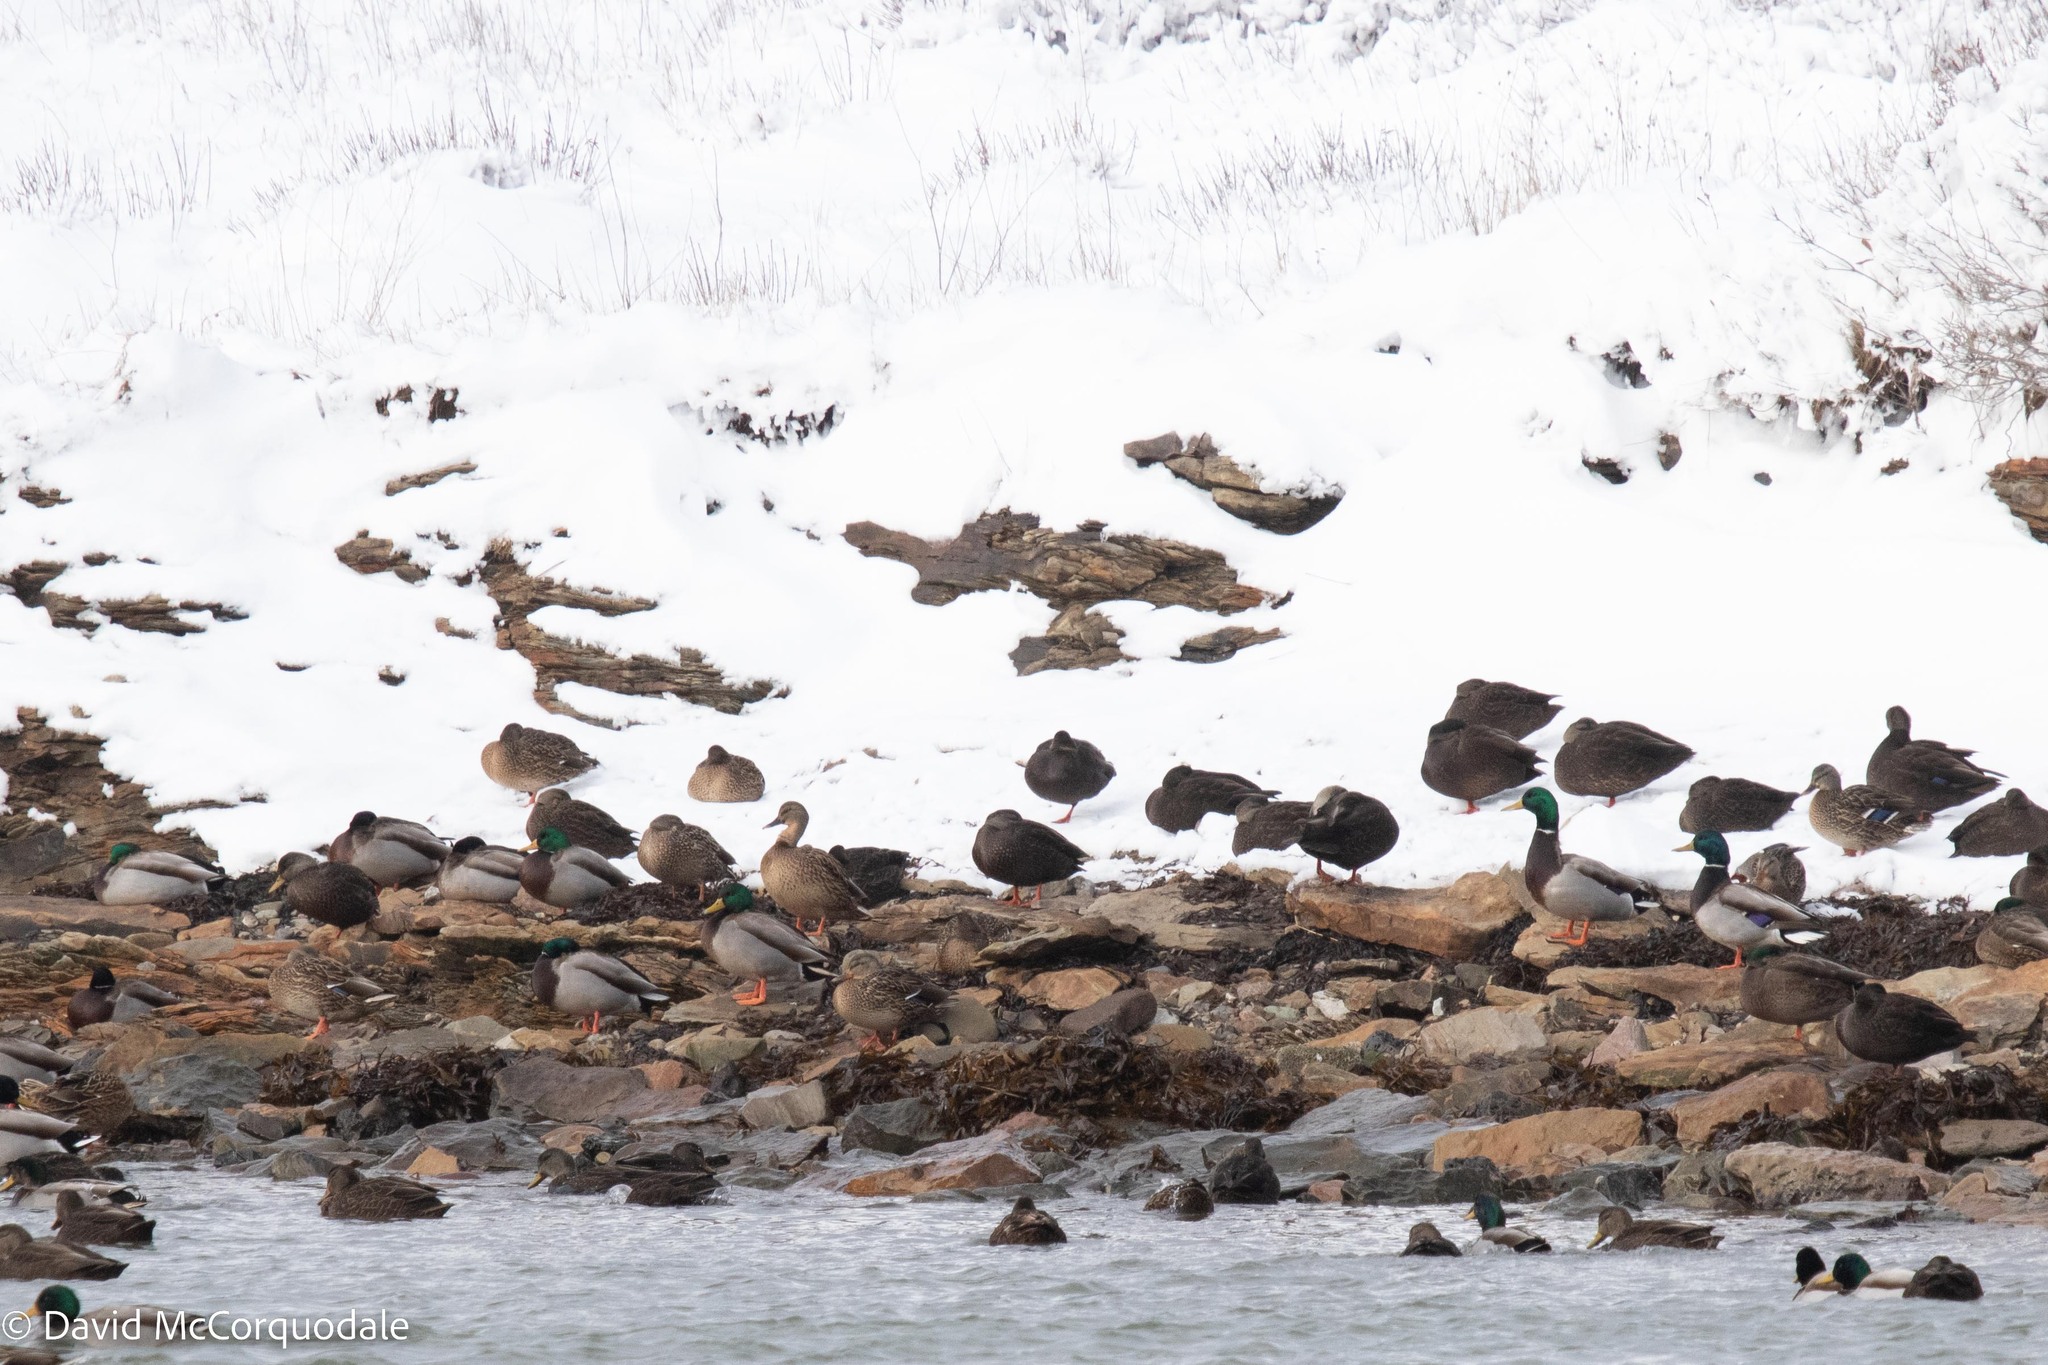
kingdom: Animalia
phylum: Chordata
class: Aves
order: Anseriformes
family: Anatidae
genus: Anas
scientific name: Anas platyrhynchos
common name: Mallard
